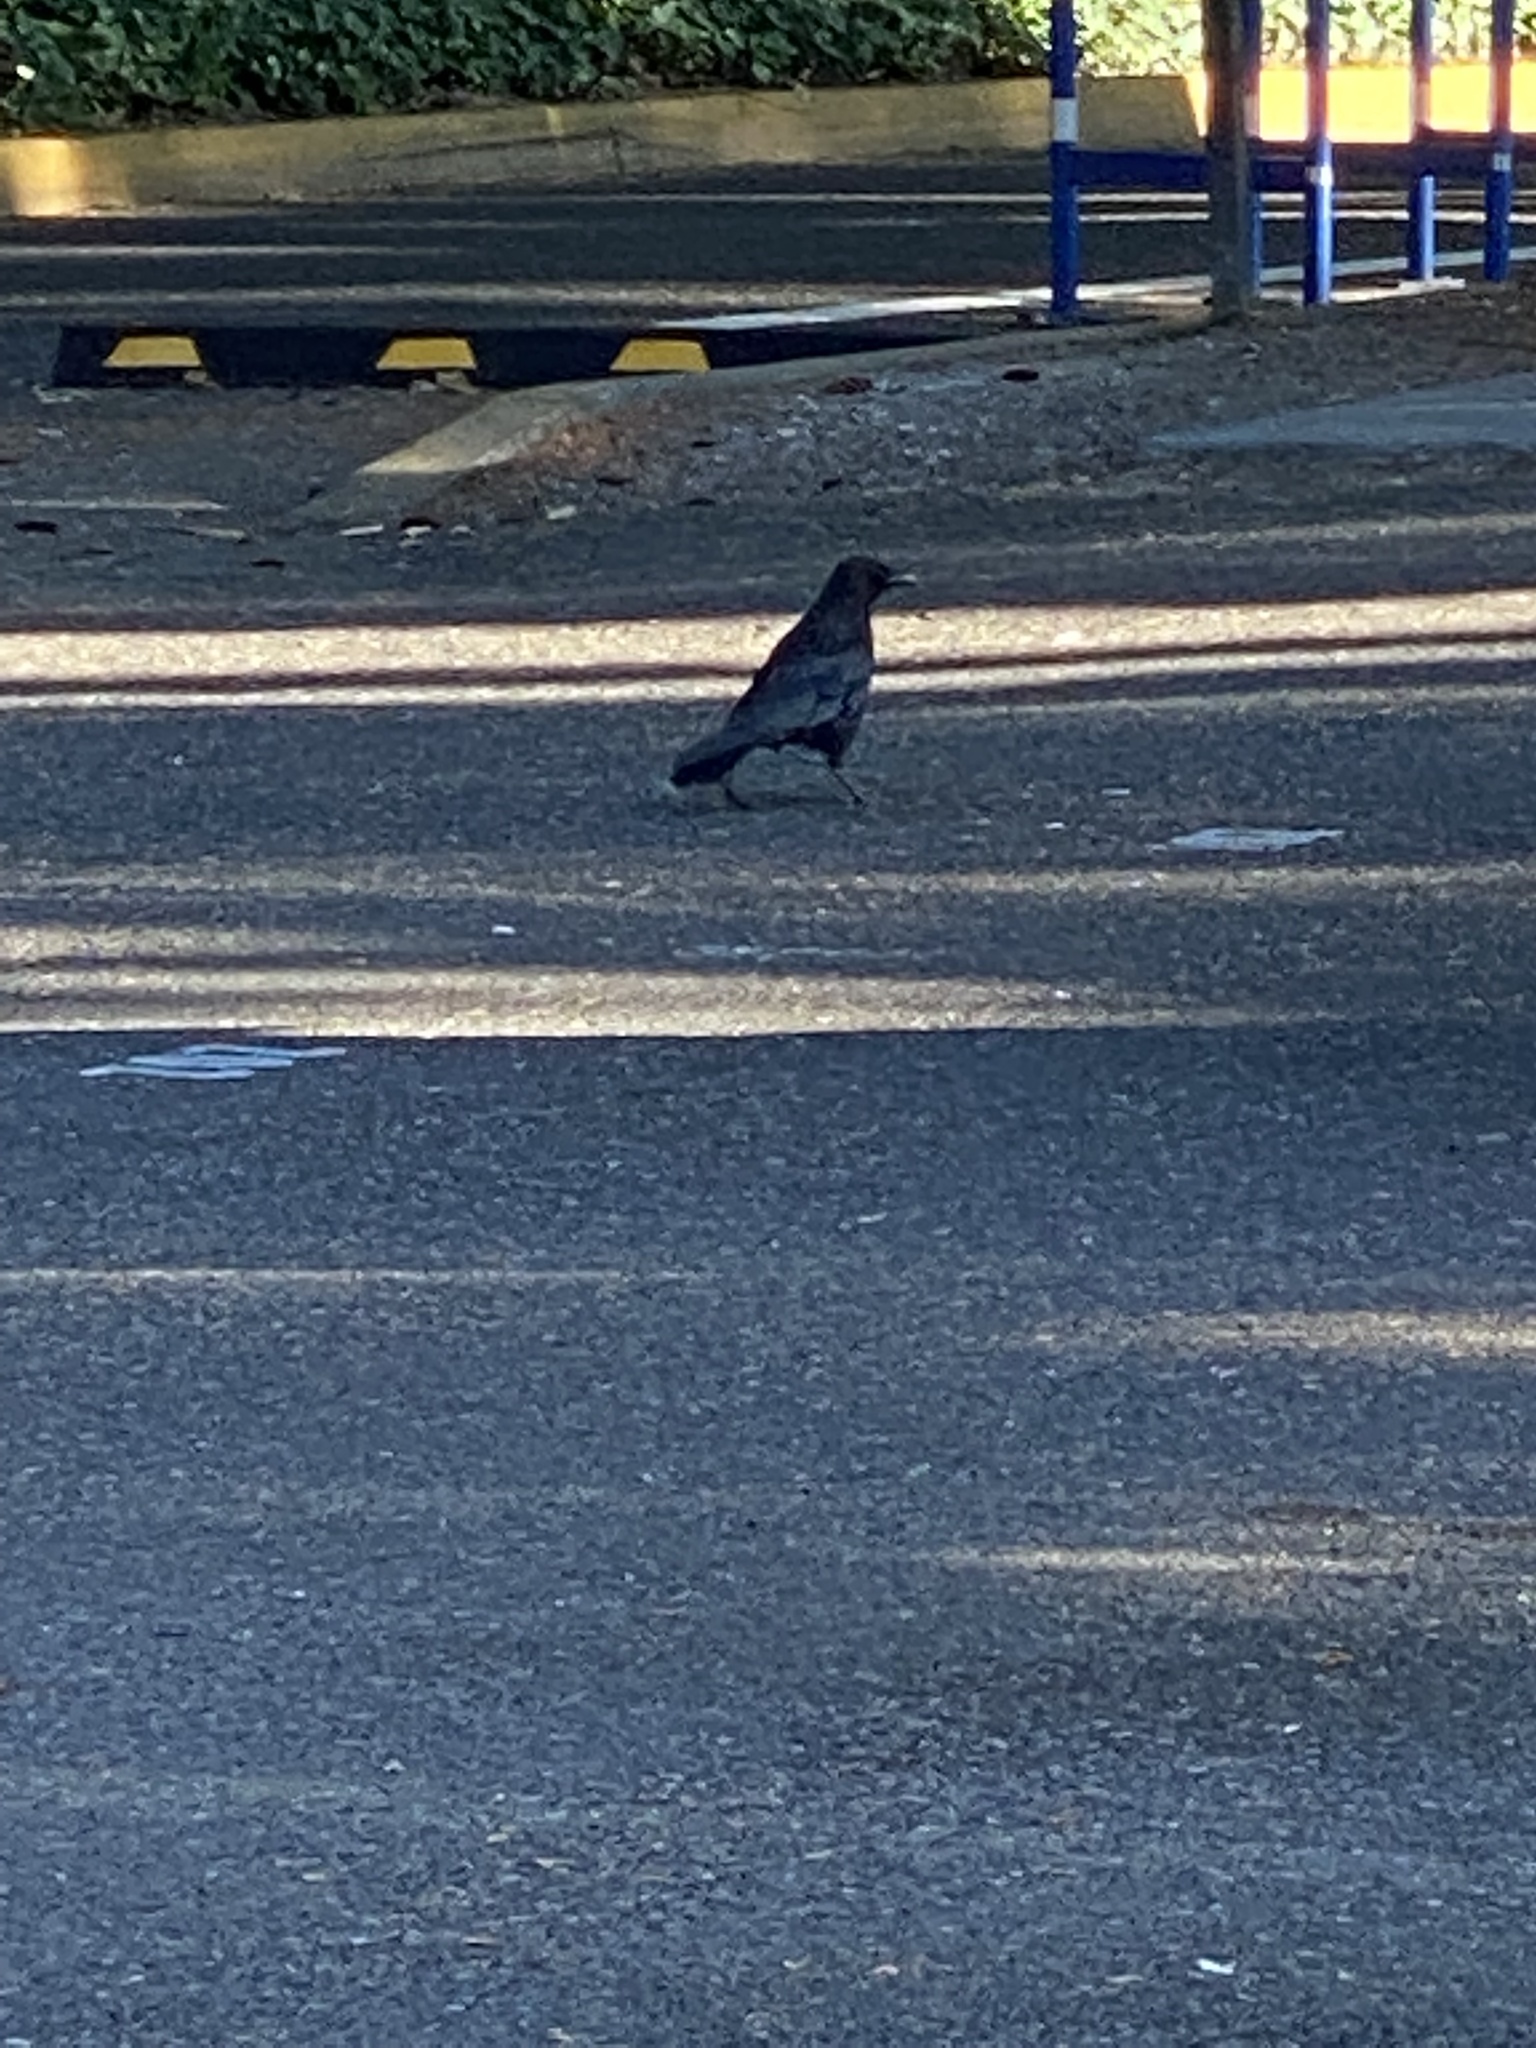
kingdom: Animalia
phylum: Chordata
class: Aves
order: Passeriformes
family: Corvidae
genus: Corvus
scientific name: Corvus brachyrhynchos
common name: American crow
